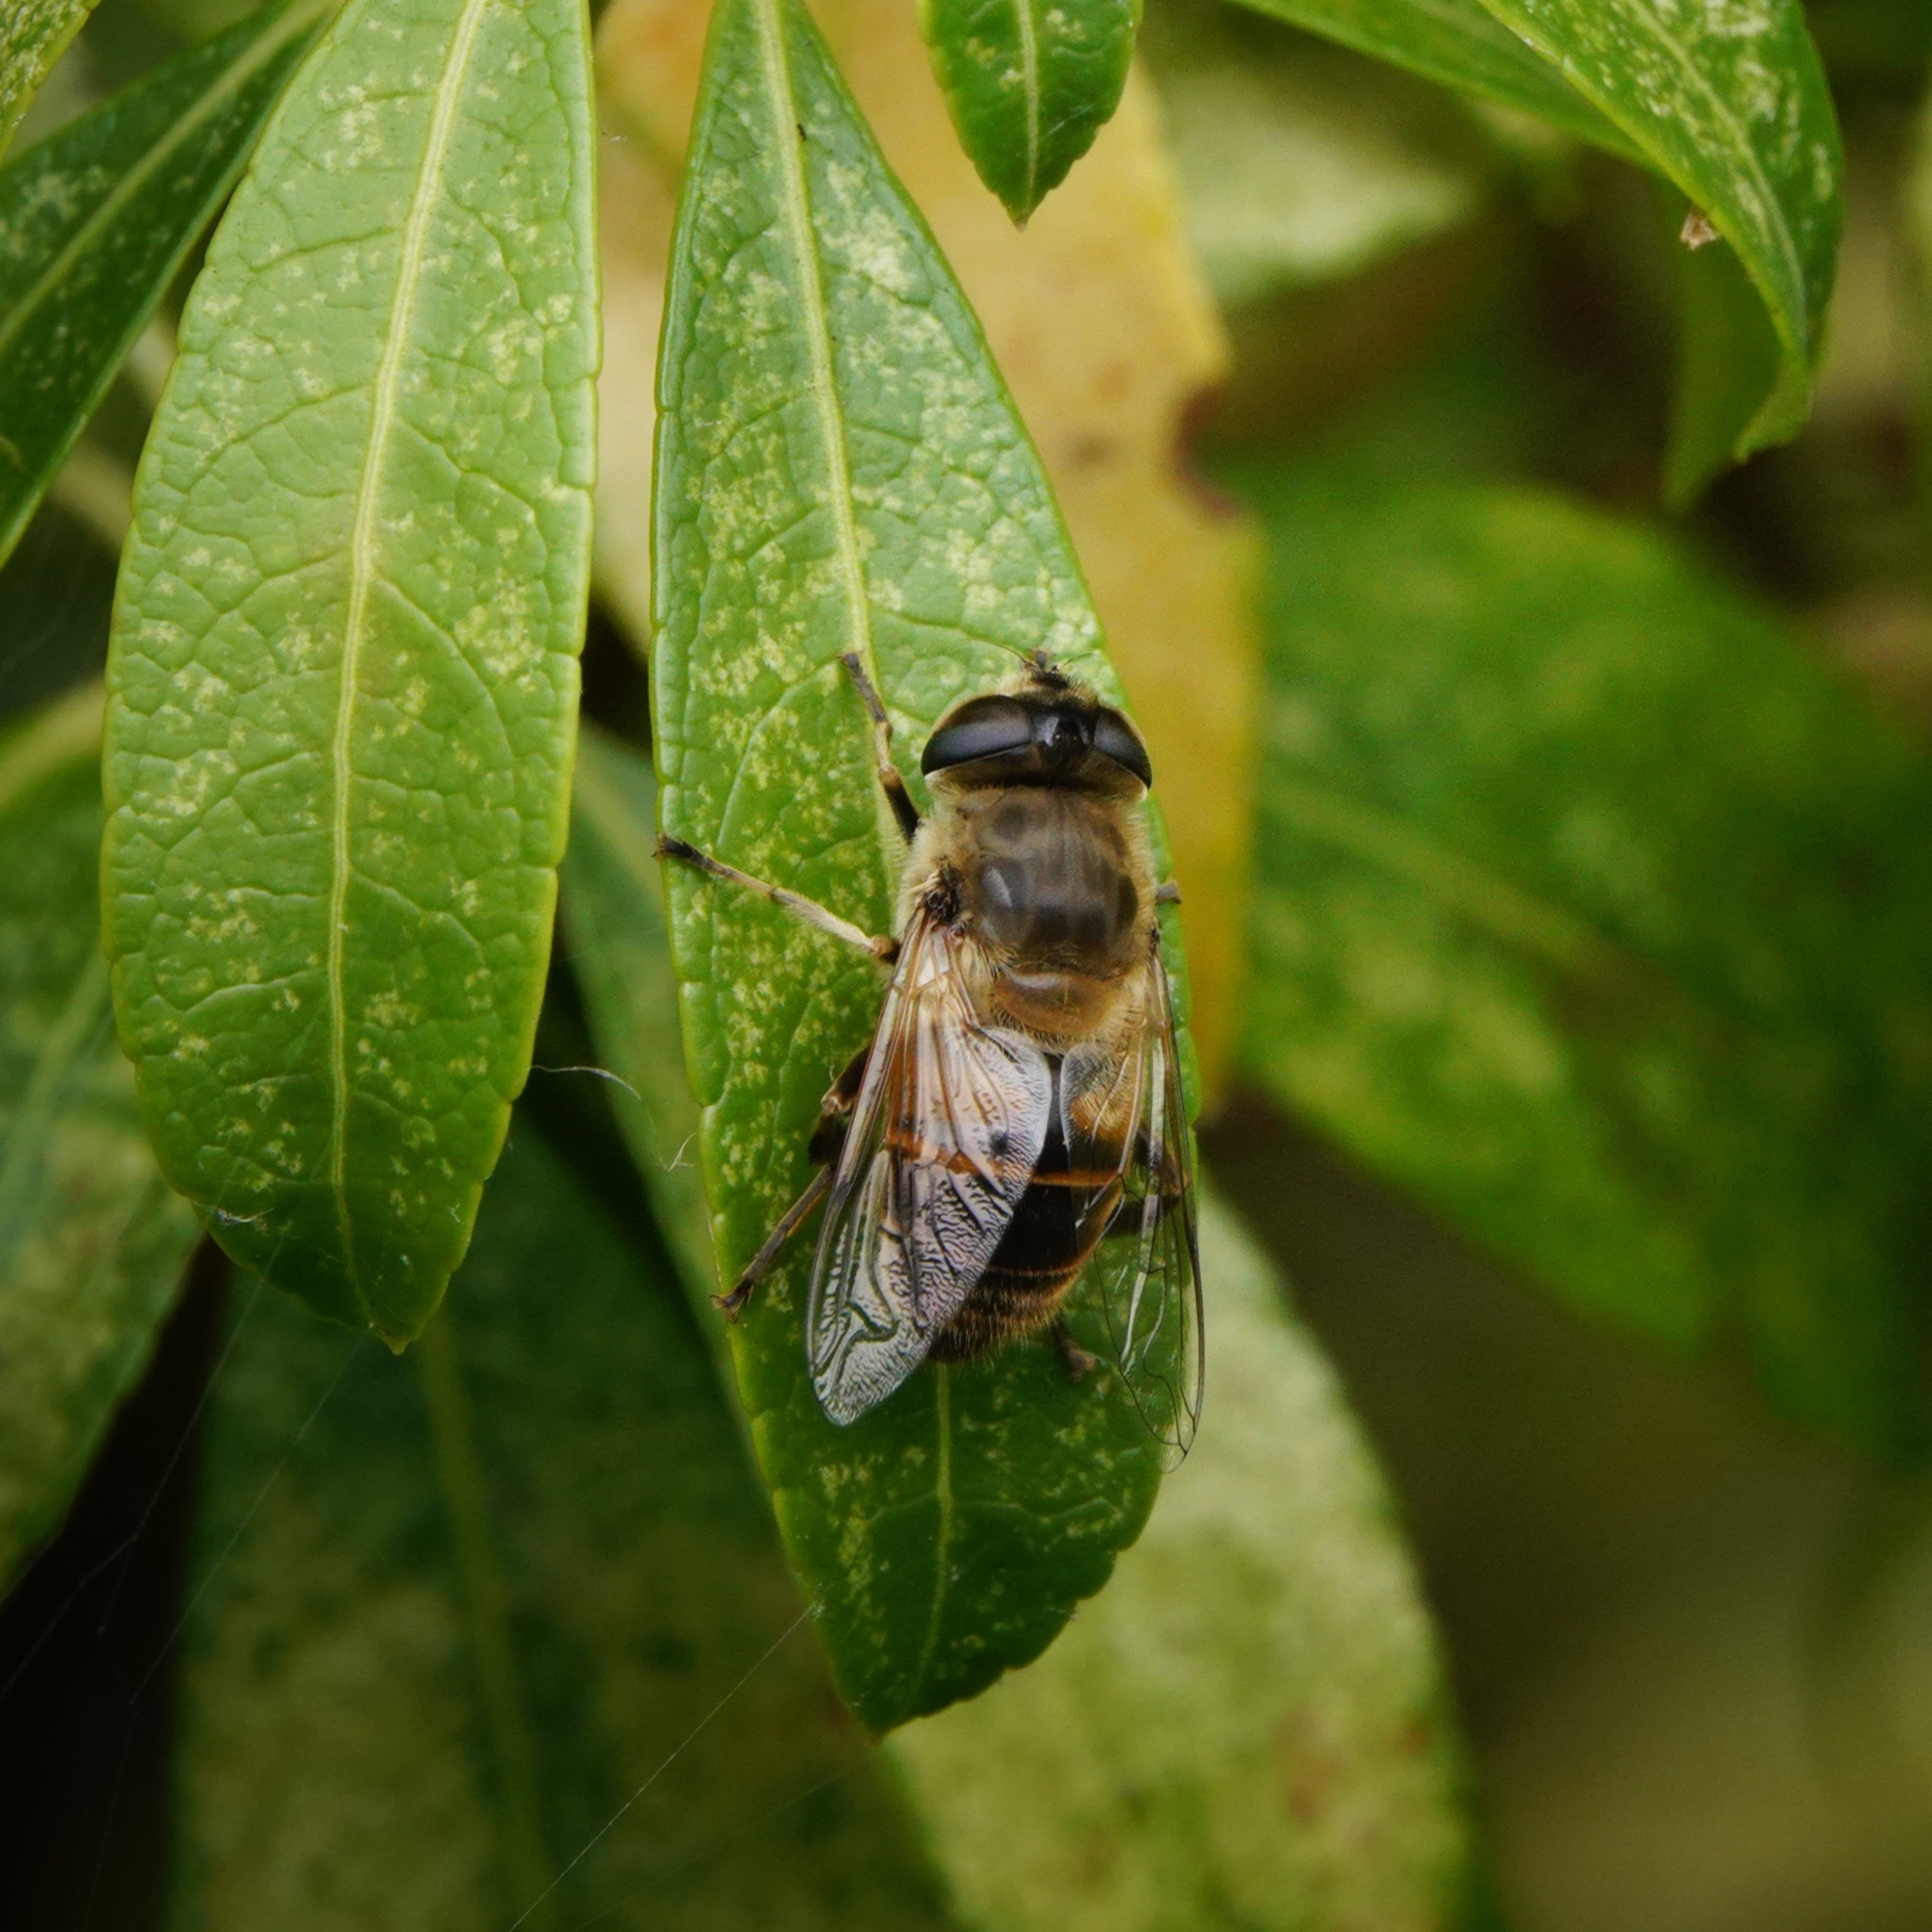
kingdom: Animalia
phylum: Arthropoda
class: Insecta
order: Diptera
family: Syrphidae
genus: Eristalis
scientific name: Eristalis tenax
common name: Drone fly
